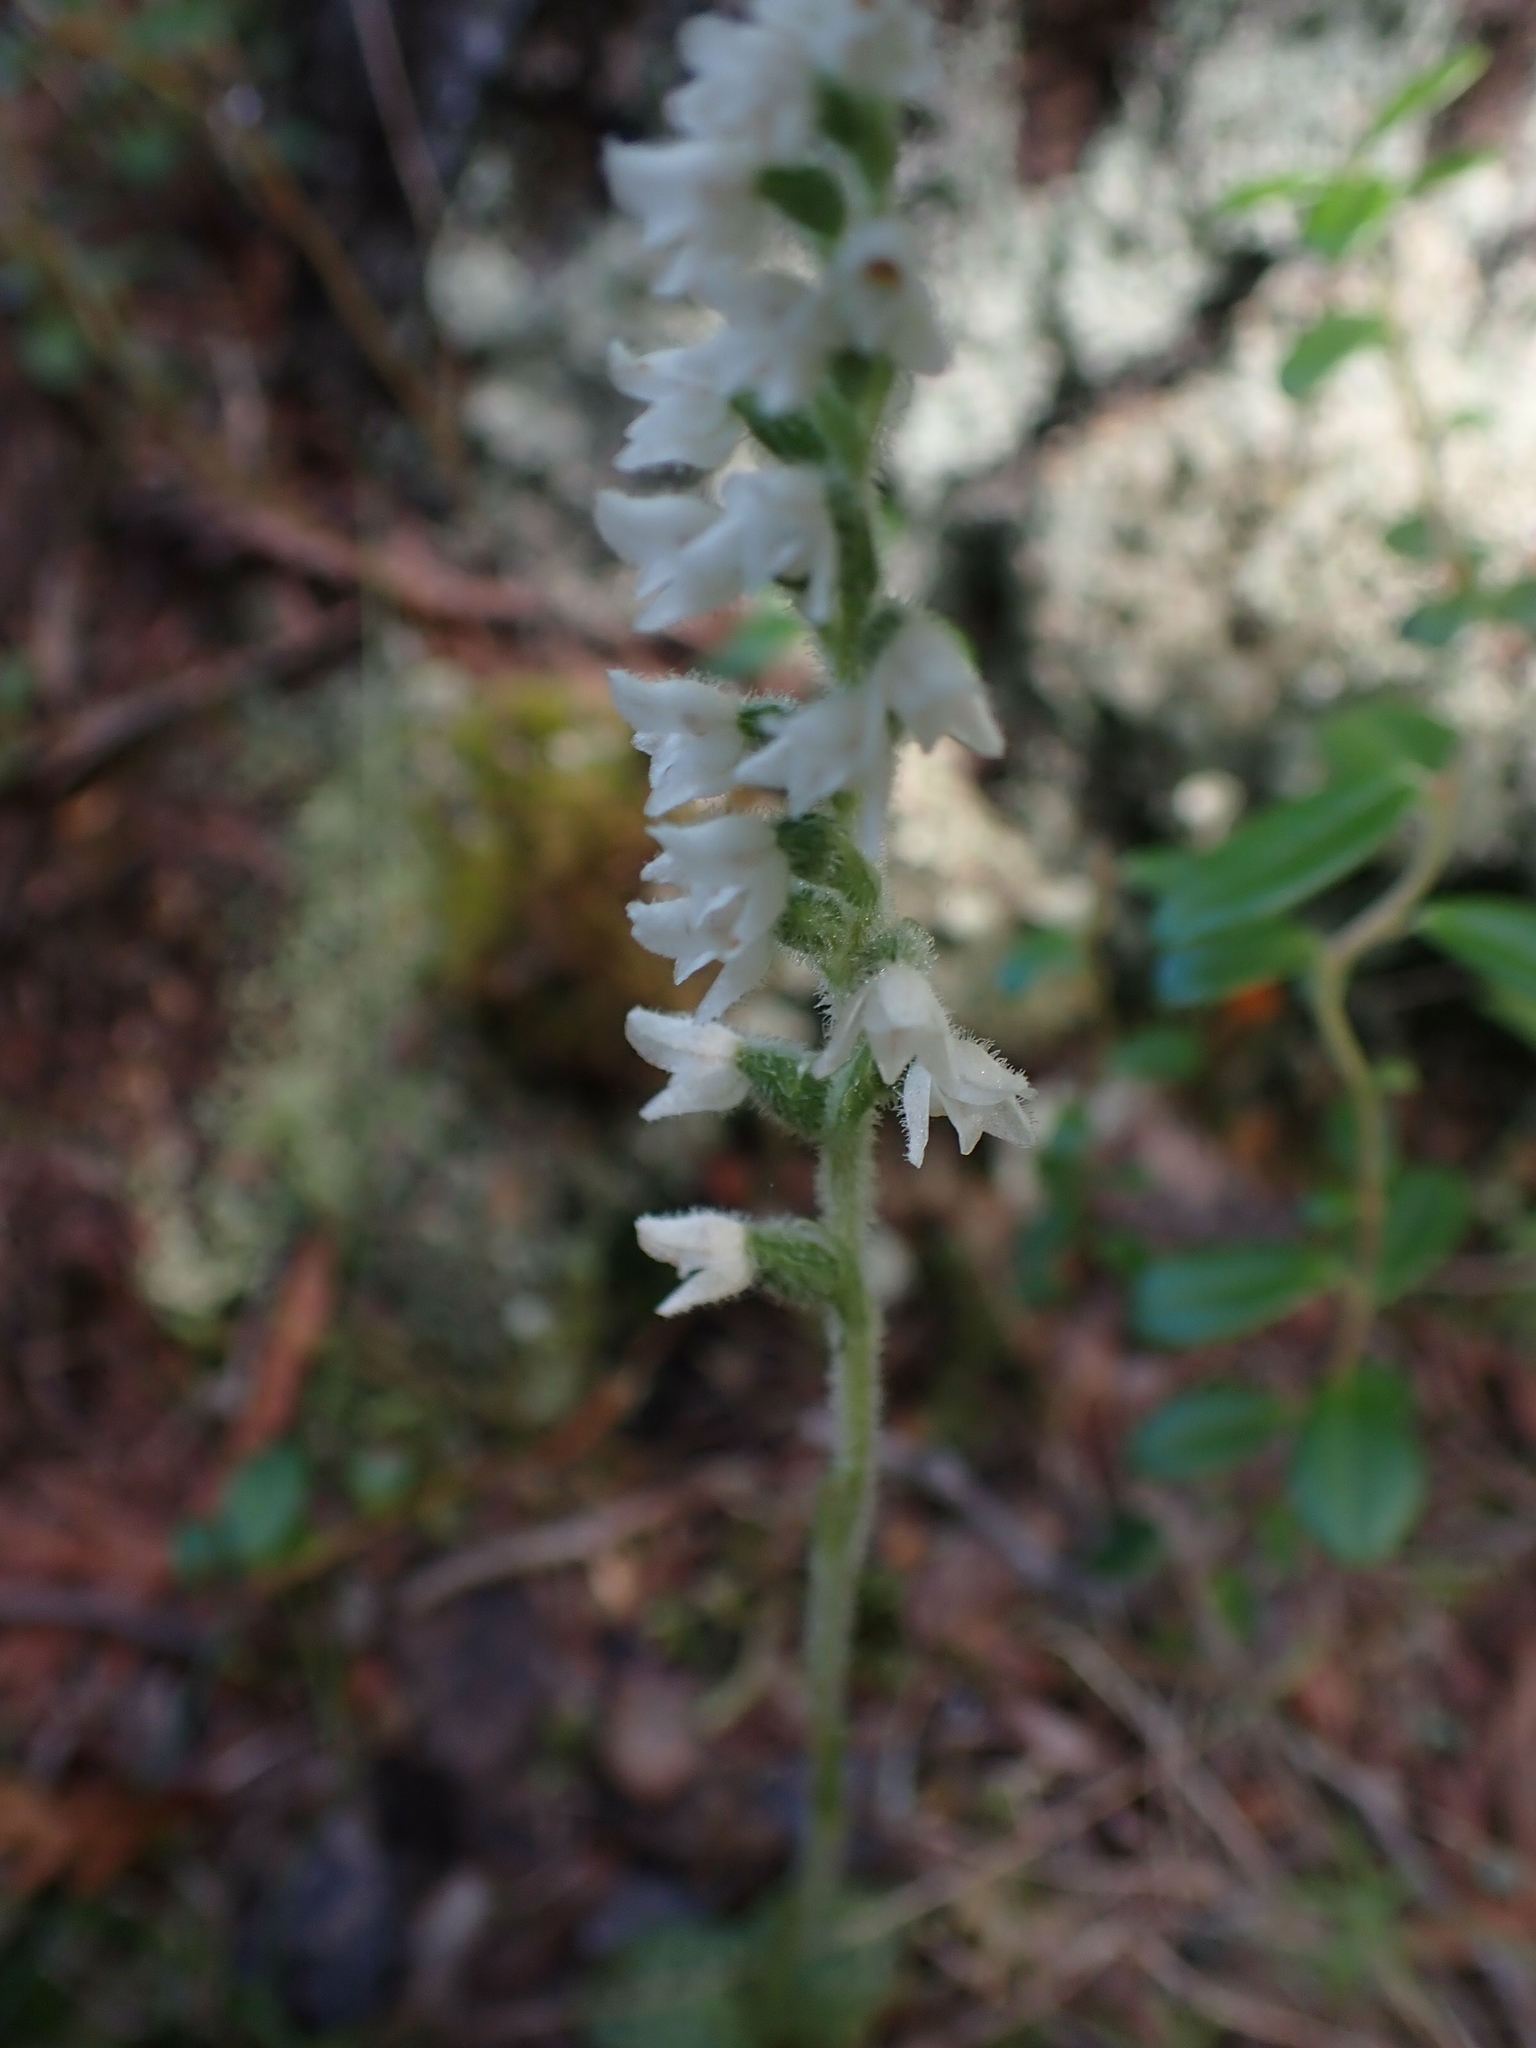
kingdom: Plantae
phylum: Tracheophyta
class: Liliopsida
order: Asparagales
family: Orchidaceae
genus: Goodyera
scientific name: Goodyera repens
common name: Creeping lady's-tresses
